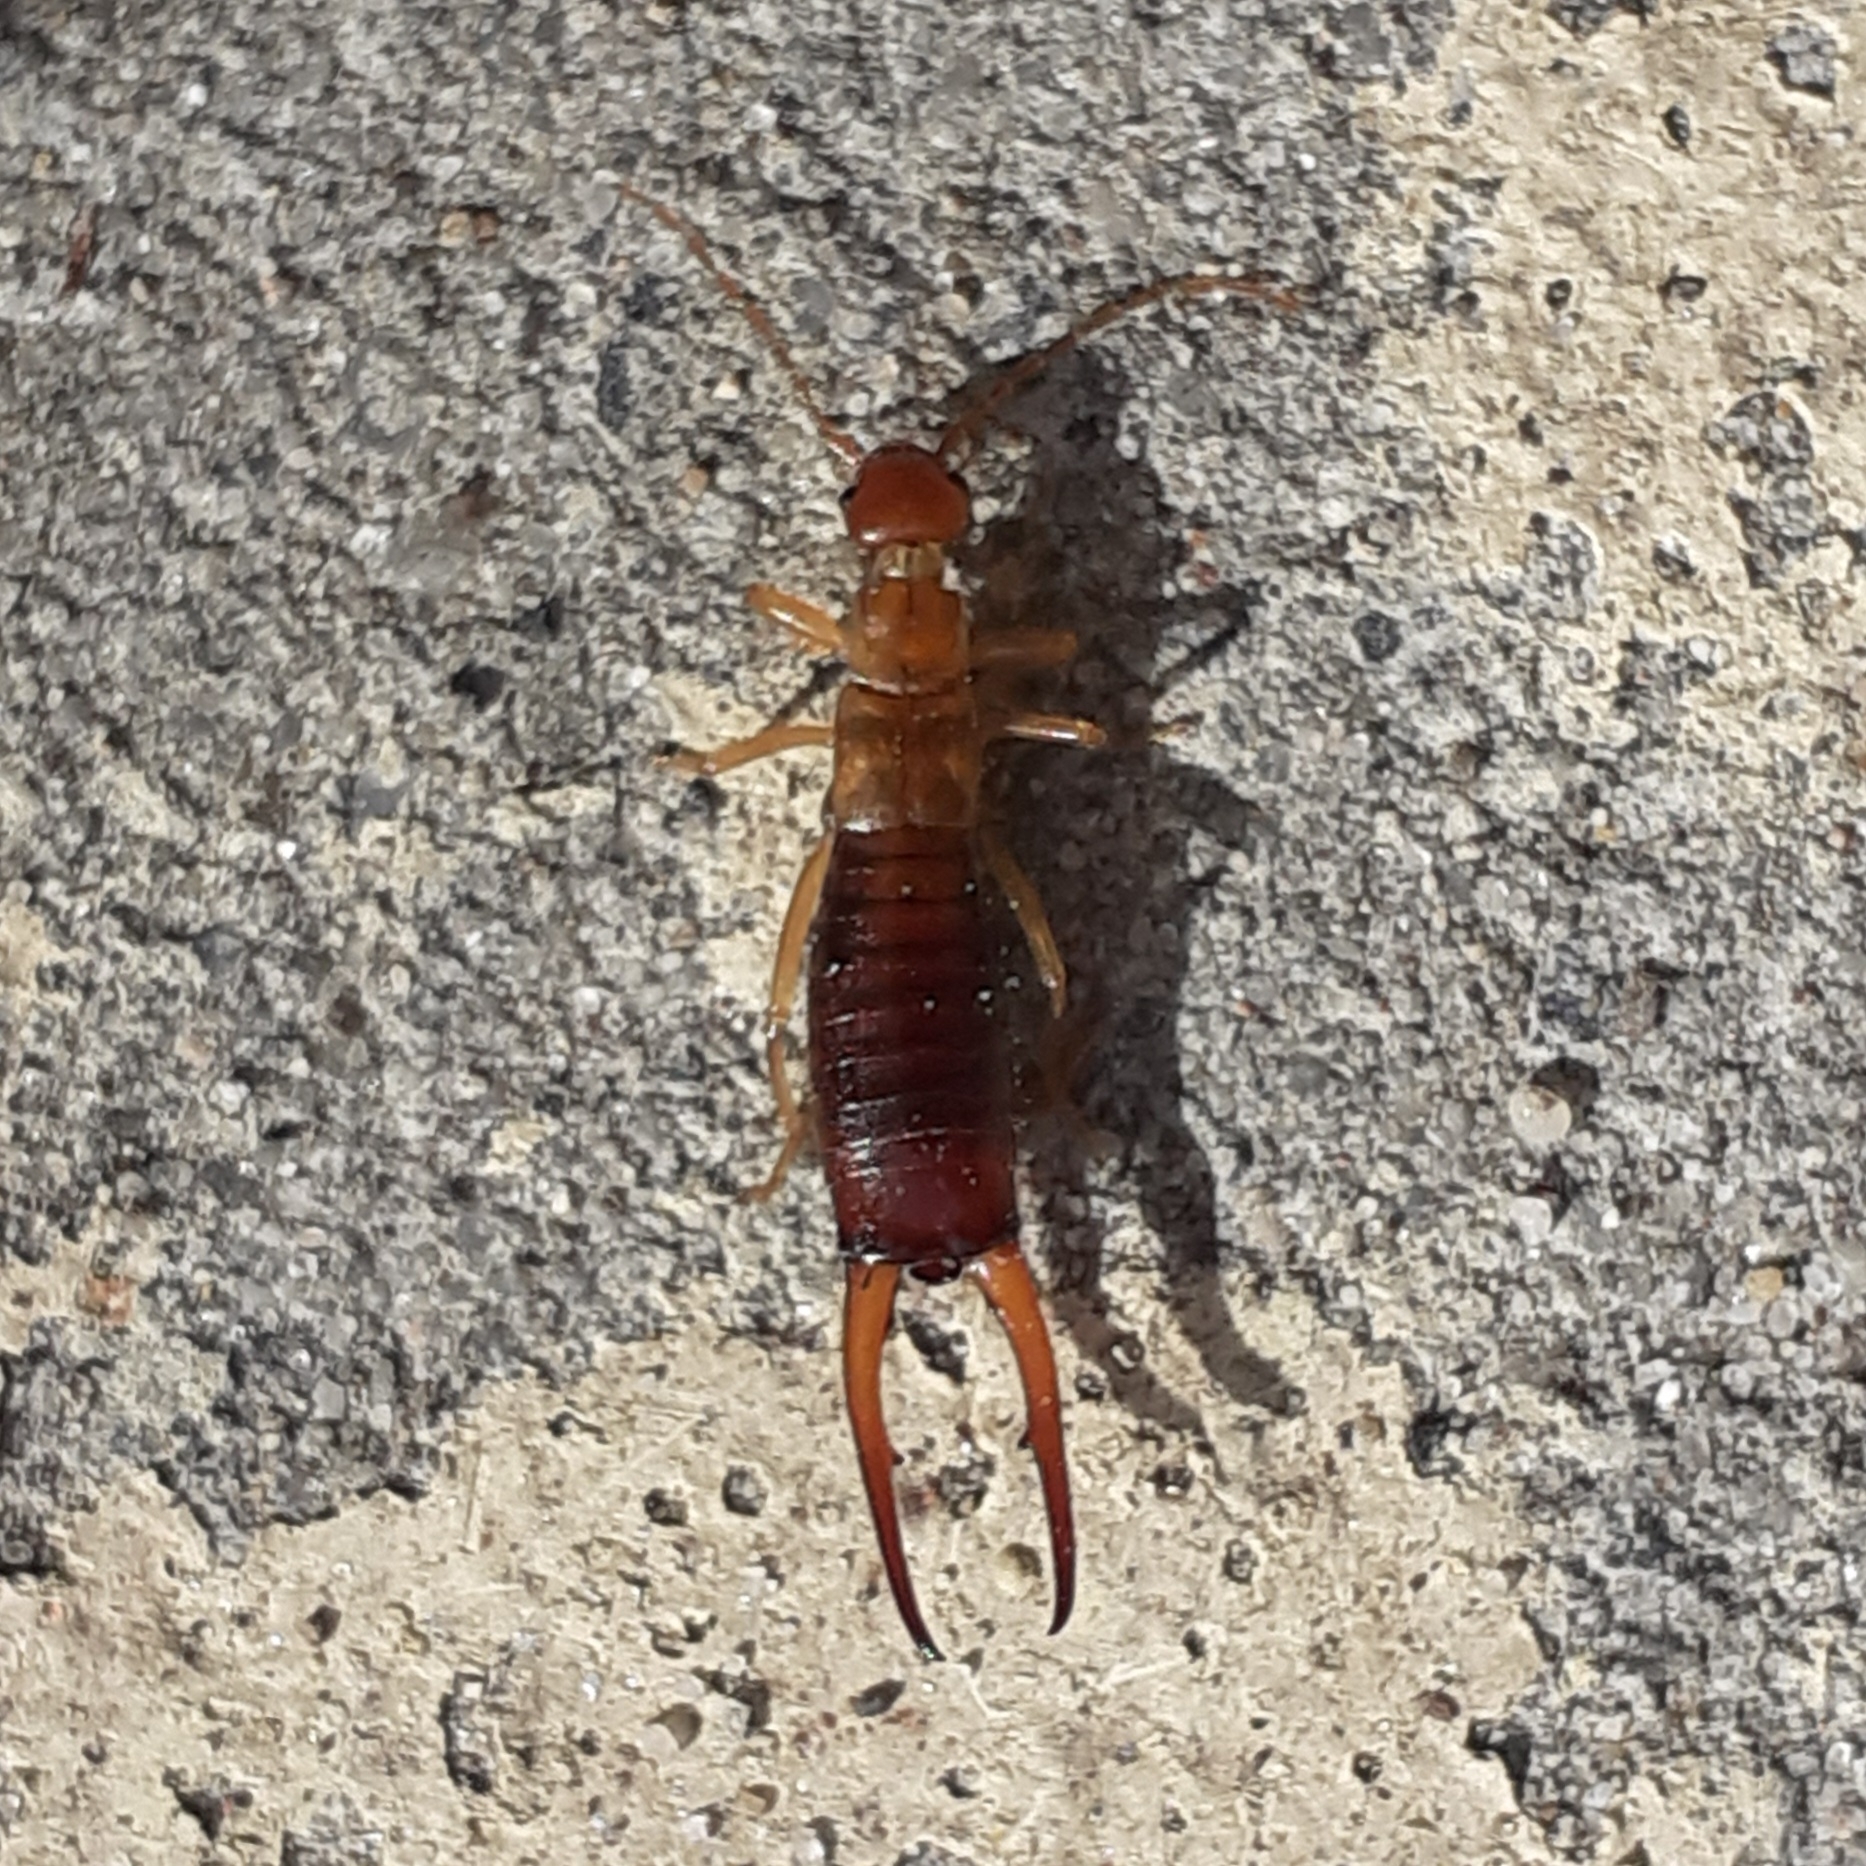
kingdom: Animalia
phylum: Arthropoda
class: Insecta
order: Dermaptera
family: Forficulidae
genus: Apterygida
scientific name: Apterygida albipennis
